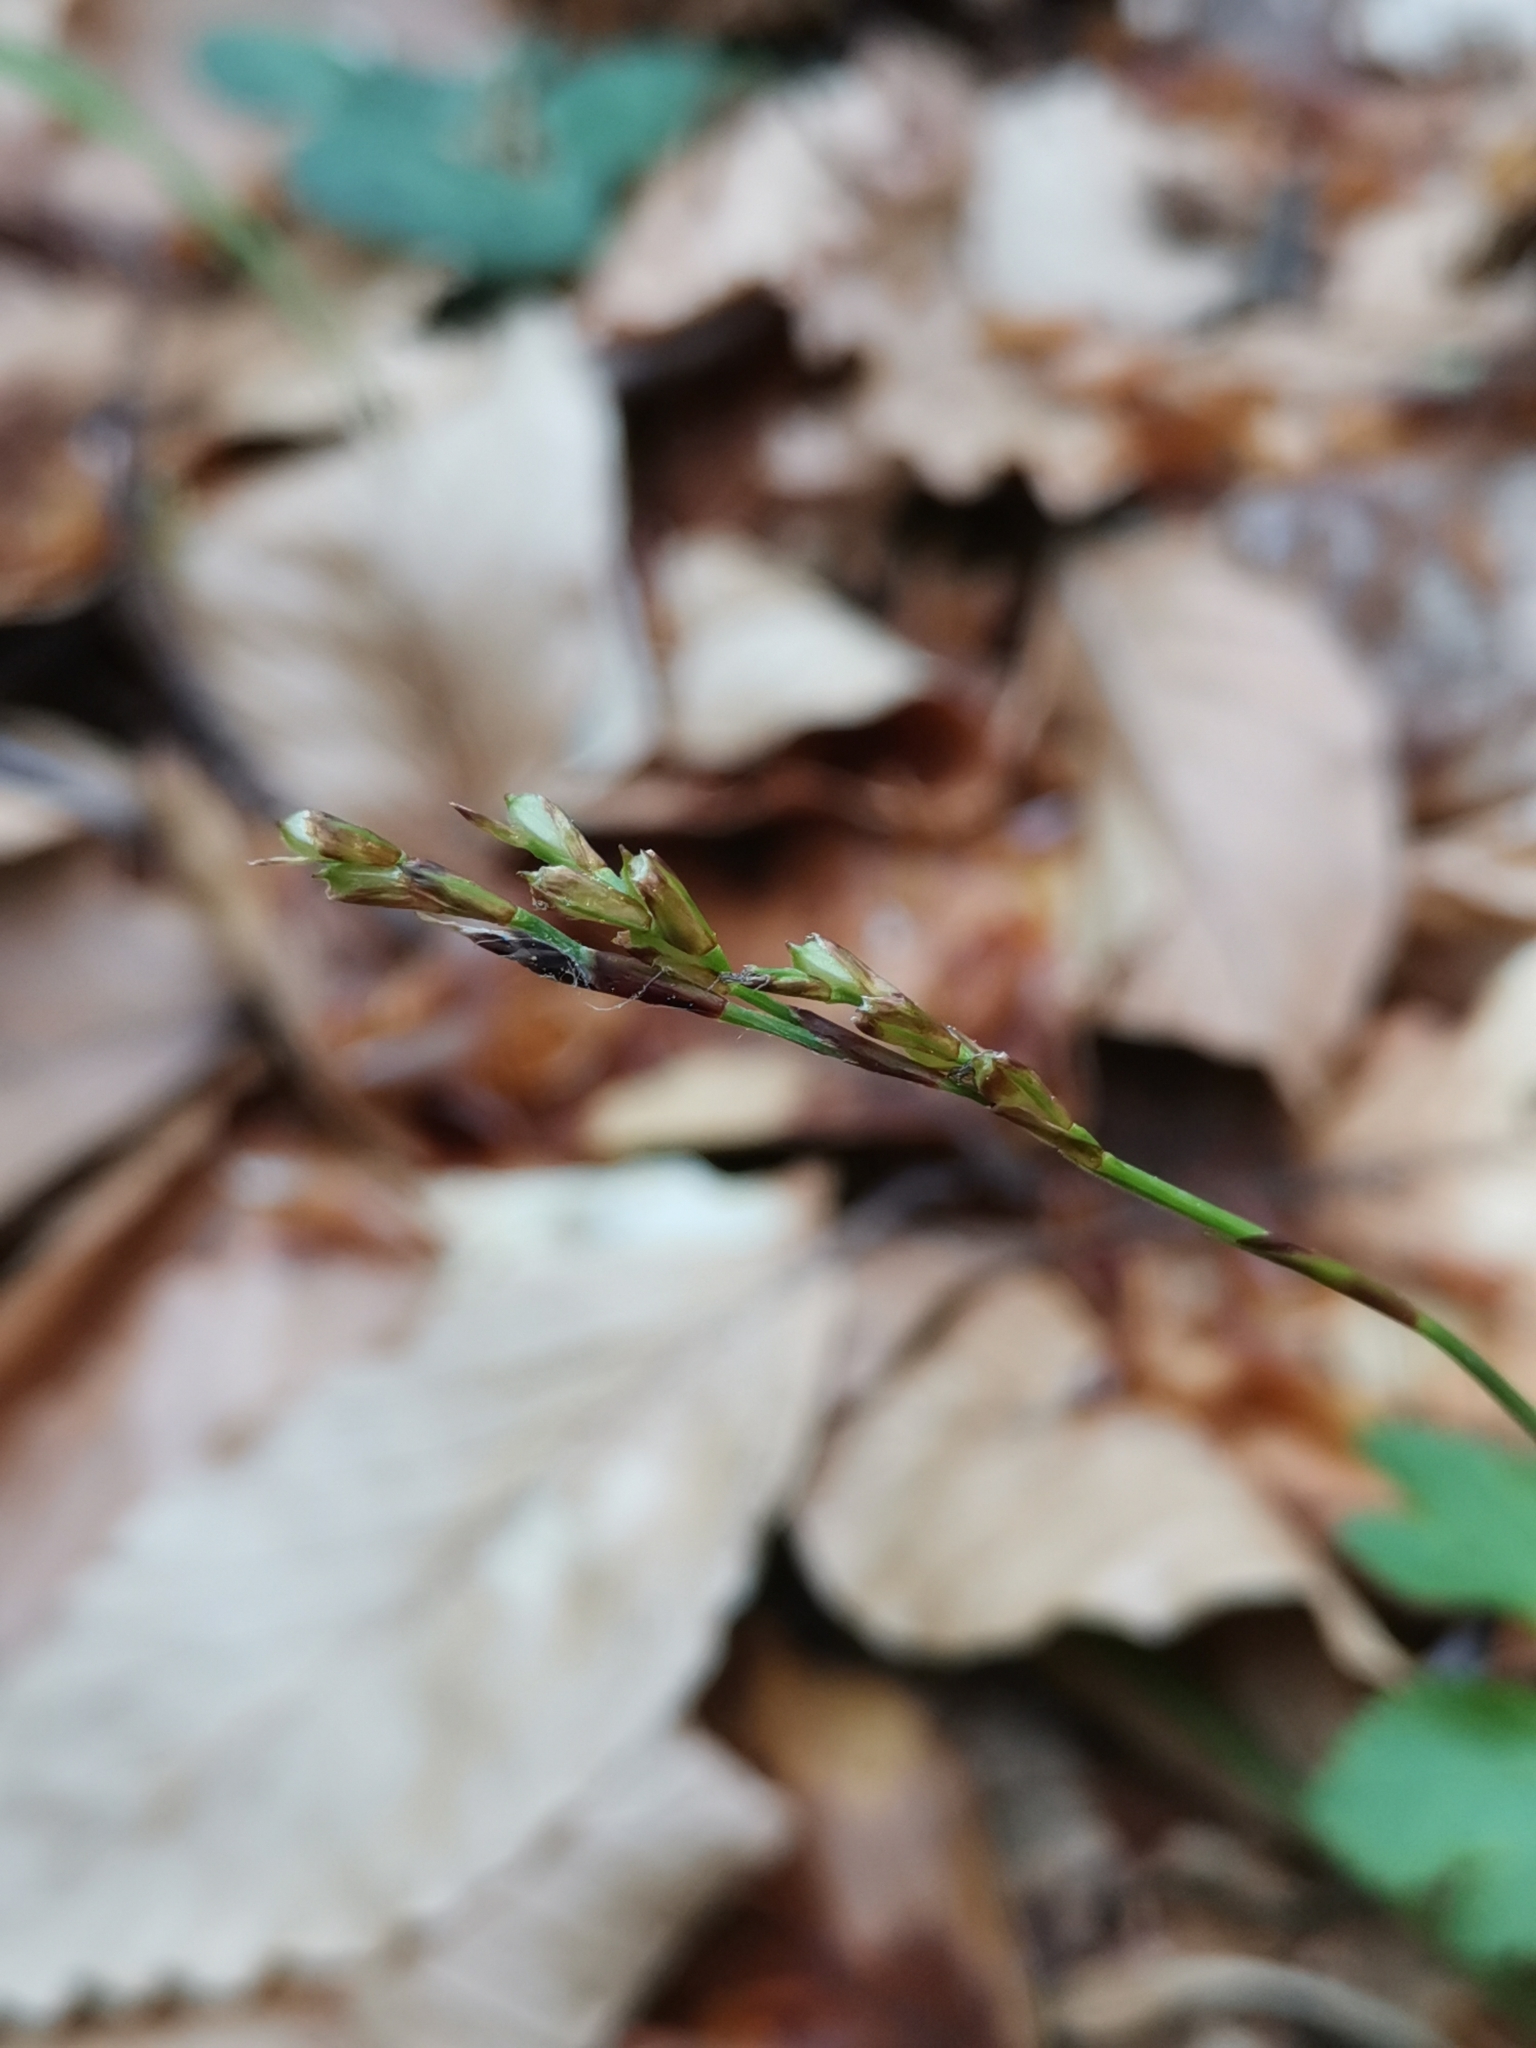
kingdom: Plantae
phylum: Tracheophyta
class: Liliopsida
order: Poales
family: Cyperaceae
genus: Carex
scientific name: Carex digitata
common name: Fingered sedge
